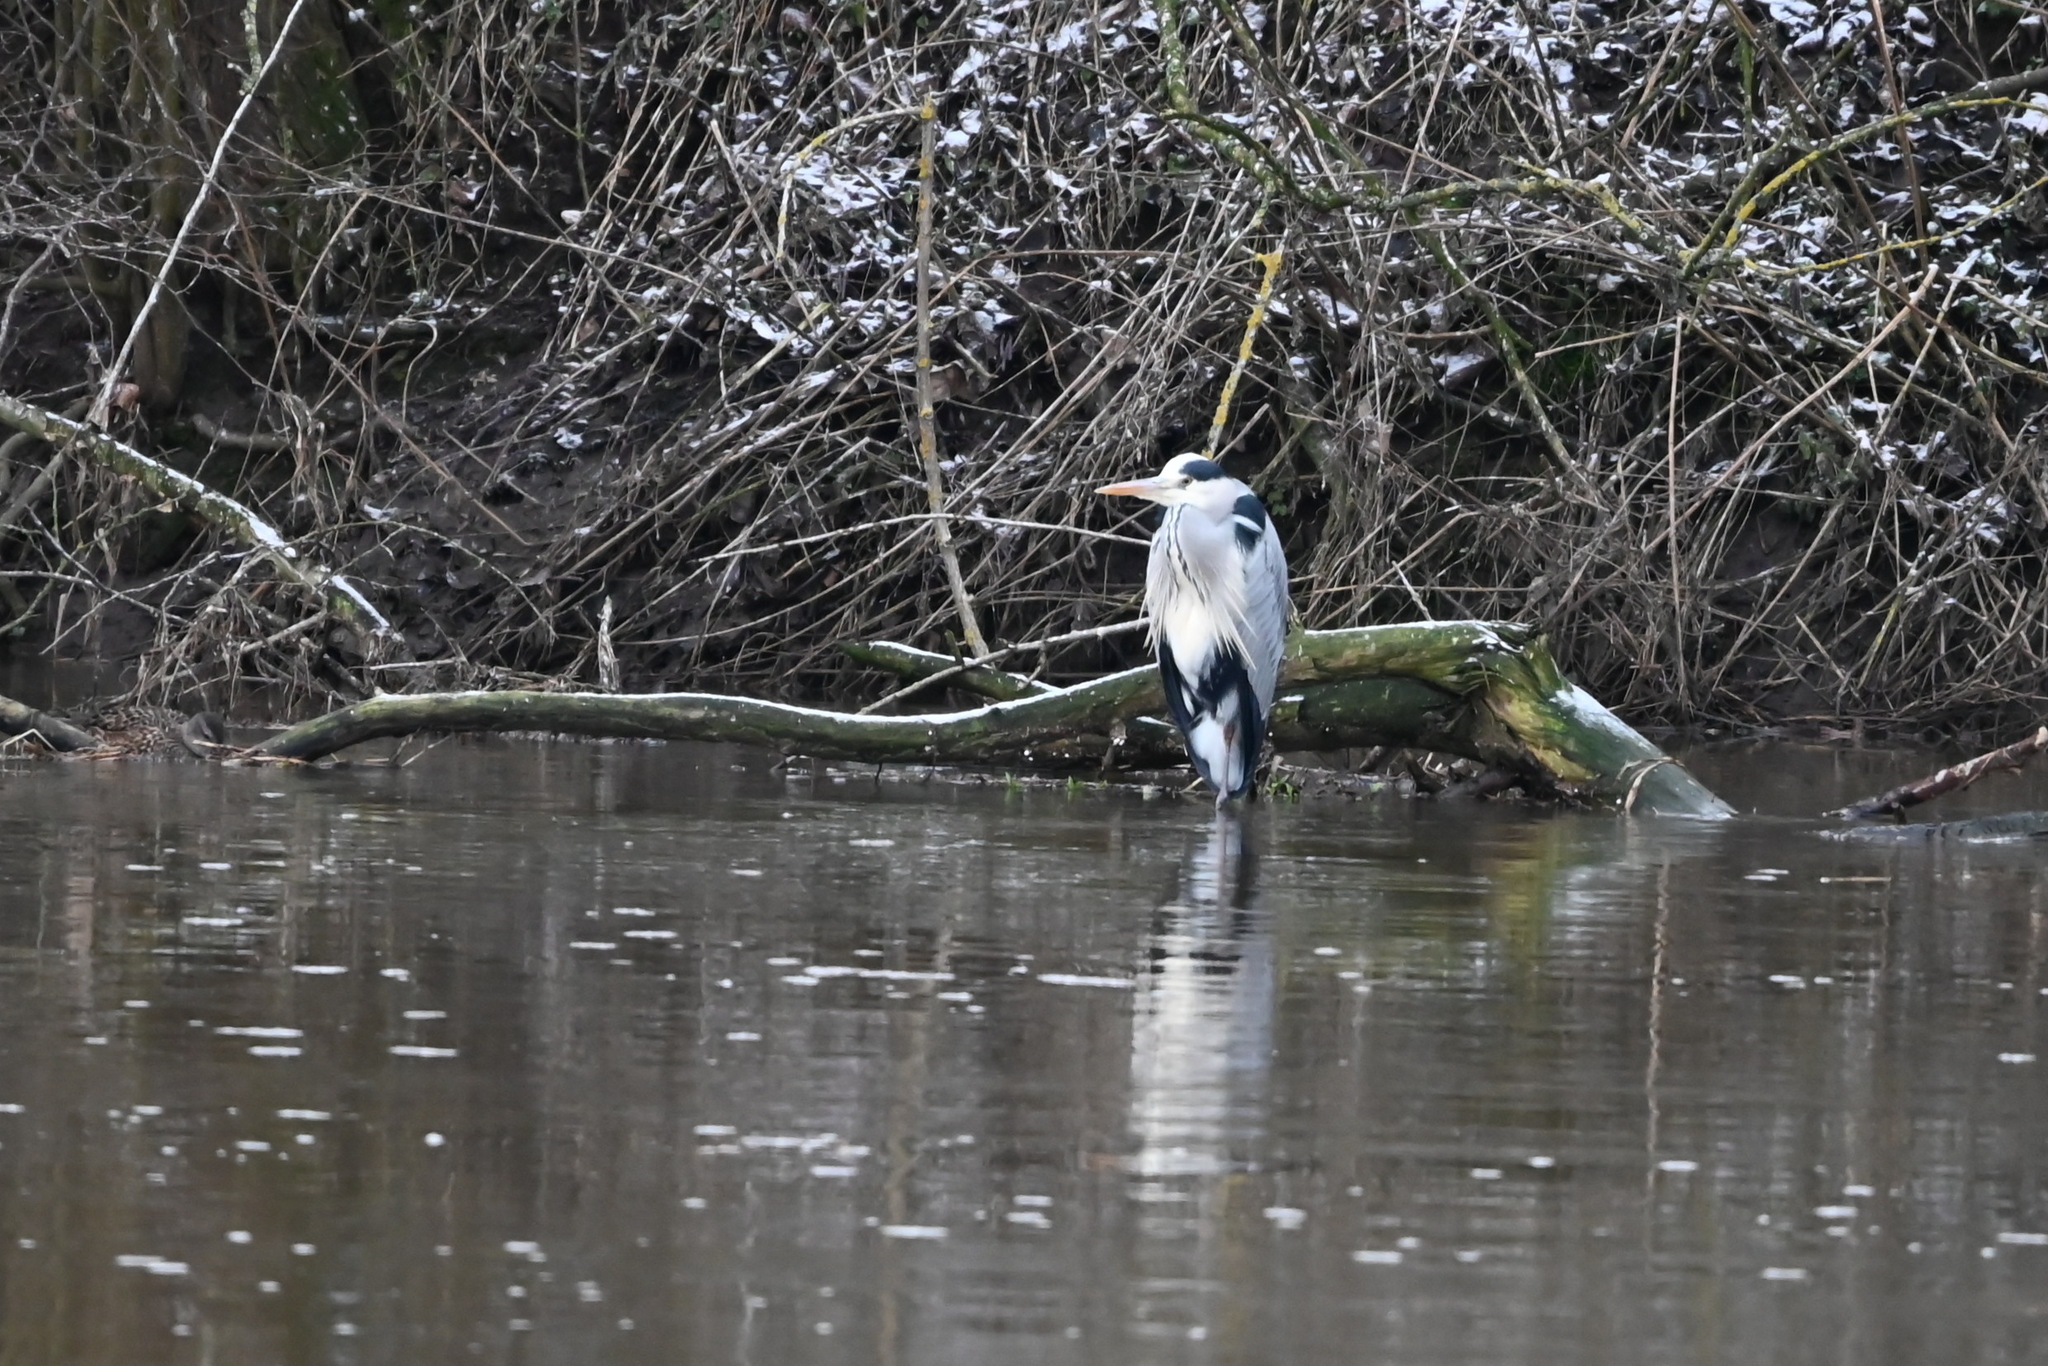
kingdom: Animalia
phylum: Chordata
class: Aves
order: Pelecaniformes
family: Ardeidae
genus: Ardea
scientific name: Ardea cinerea
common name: Grey heron
